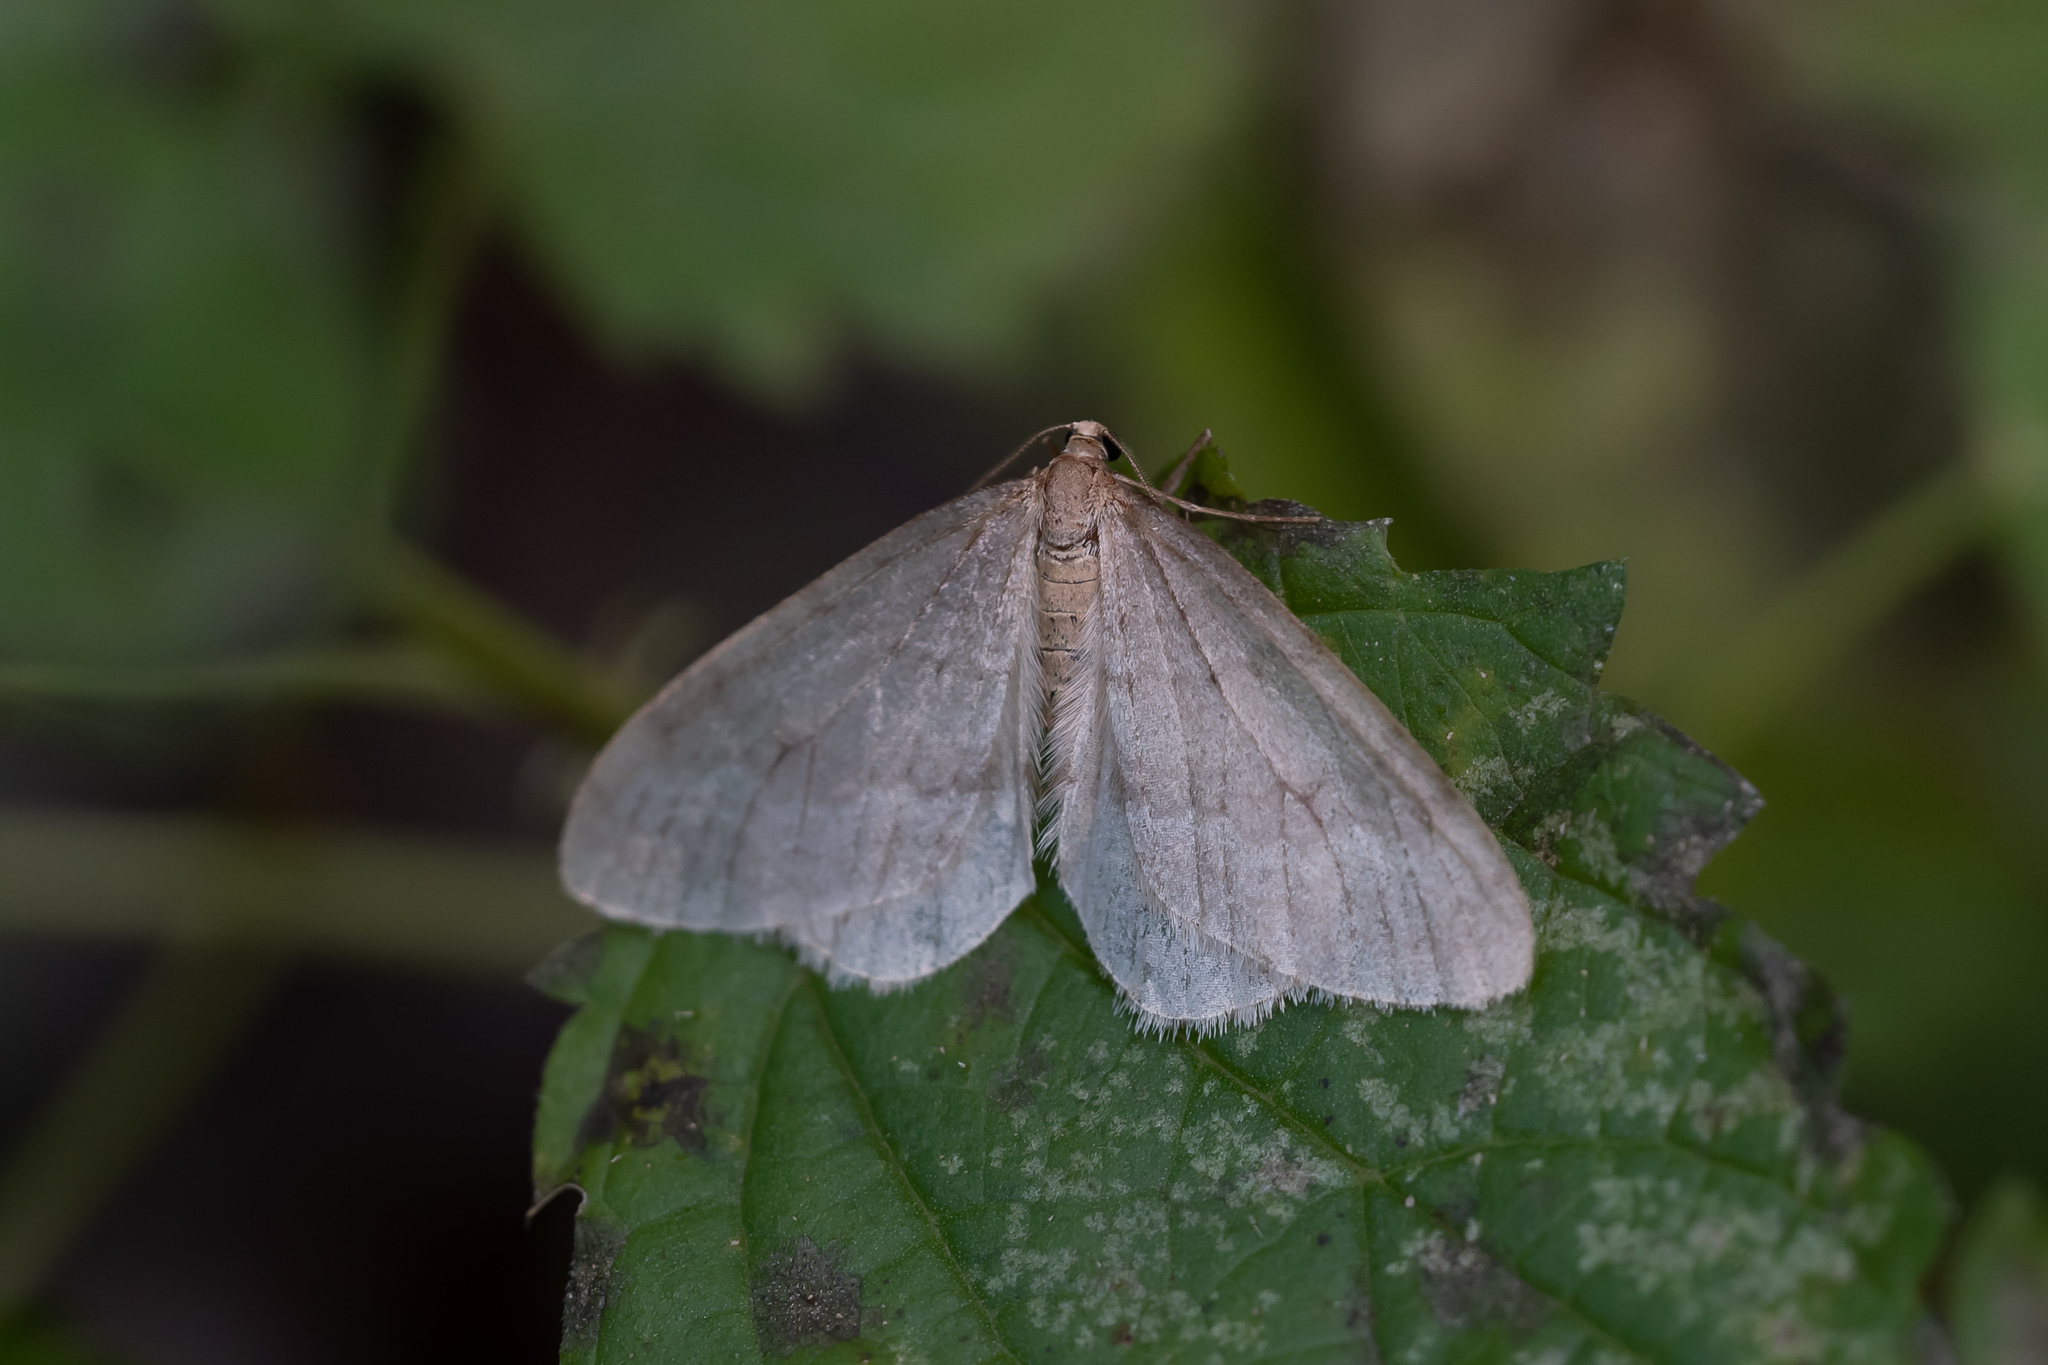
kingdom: Animalia
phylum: Arthropoda
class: Insecta
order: Lepidoptera
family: Geometridae
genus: Operophtera
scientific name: Operophtera fagata
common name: Northern winter moth
